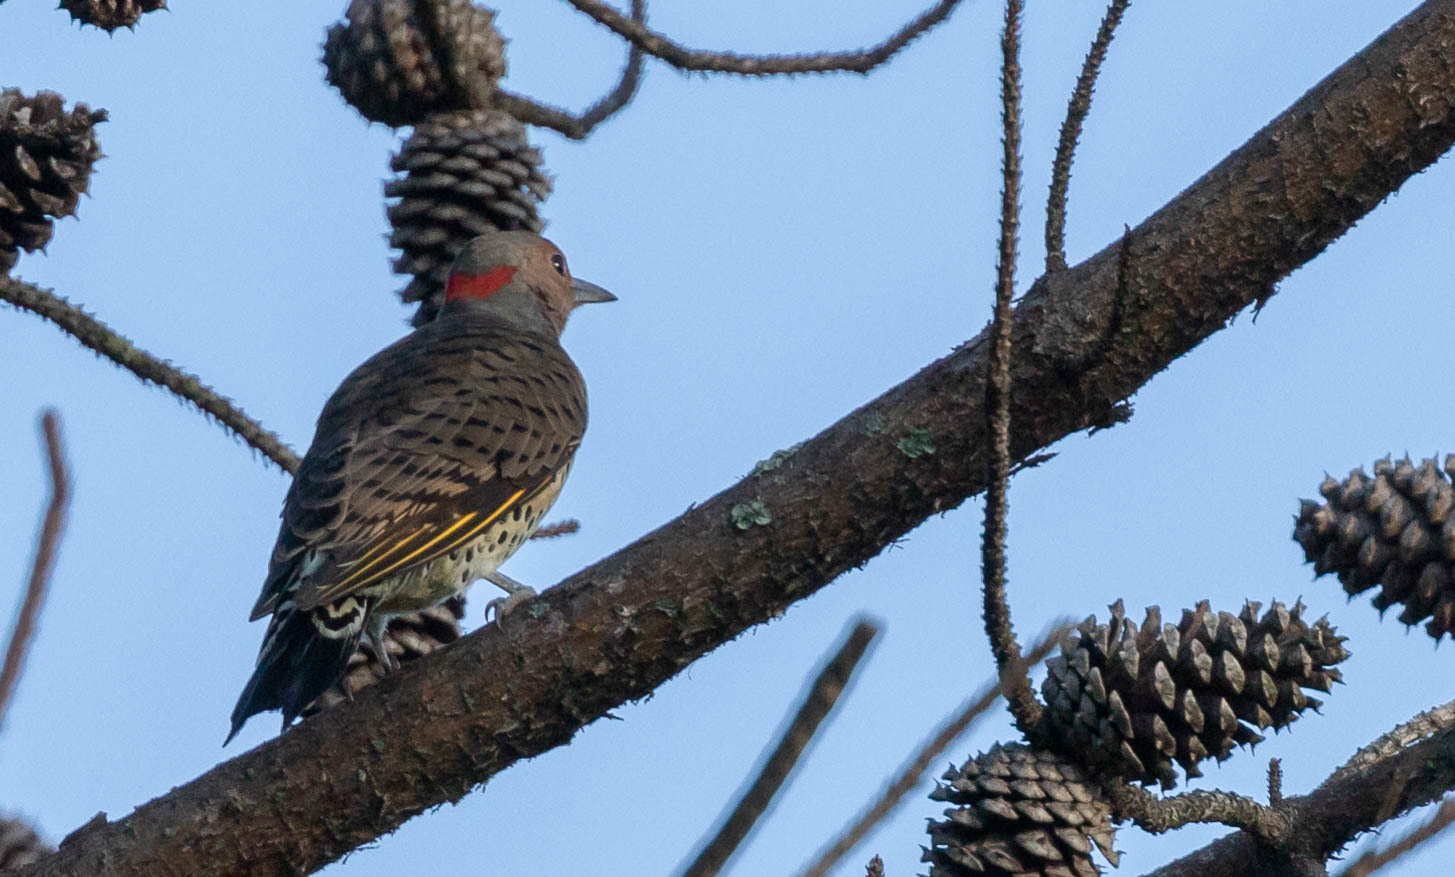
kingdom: Animalia
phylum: Chordata
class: Aves
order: Piciformes
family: Picidae
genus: Colaptes
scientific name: Colaptes auratus
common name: Northern flicker
